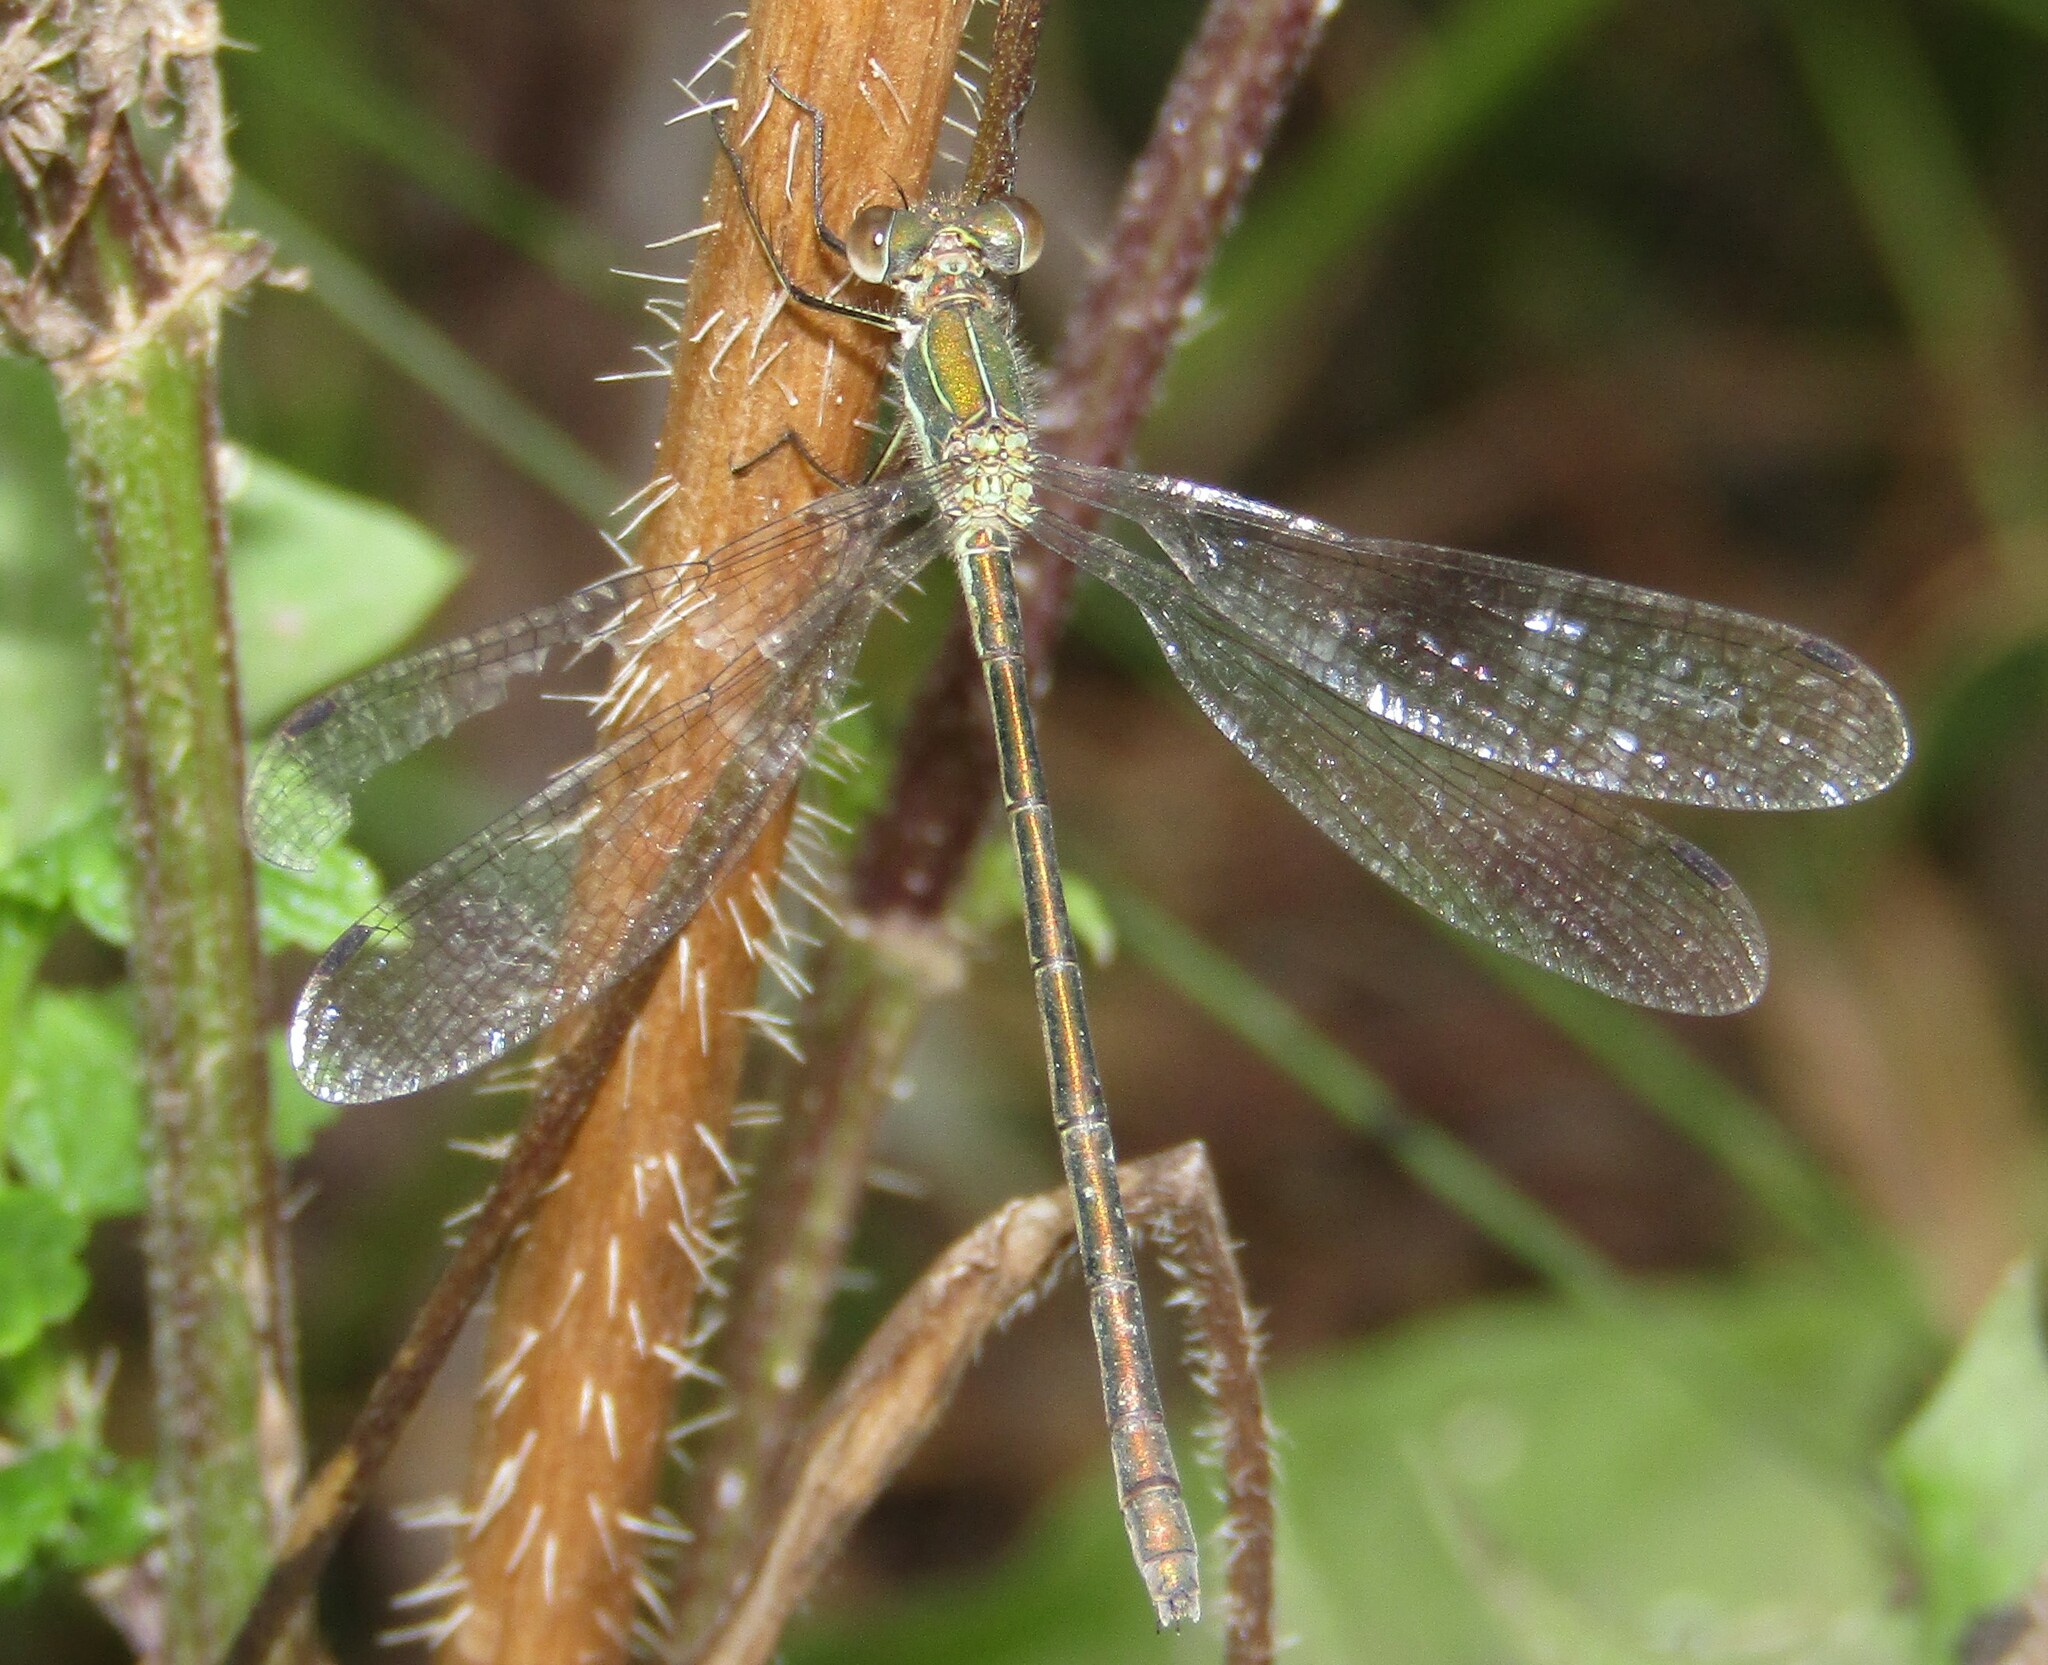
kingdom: Animalia
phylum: Arthropoda
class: Insecta
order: Odonata
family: Lestidae
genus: Lestes
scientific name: Lestes sponsa
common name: Common spreadwing
